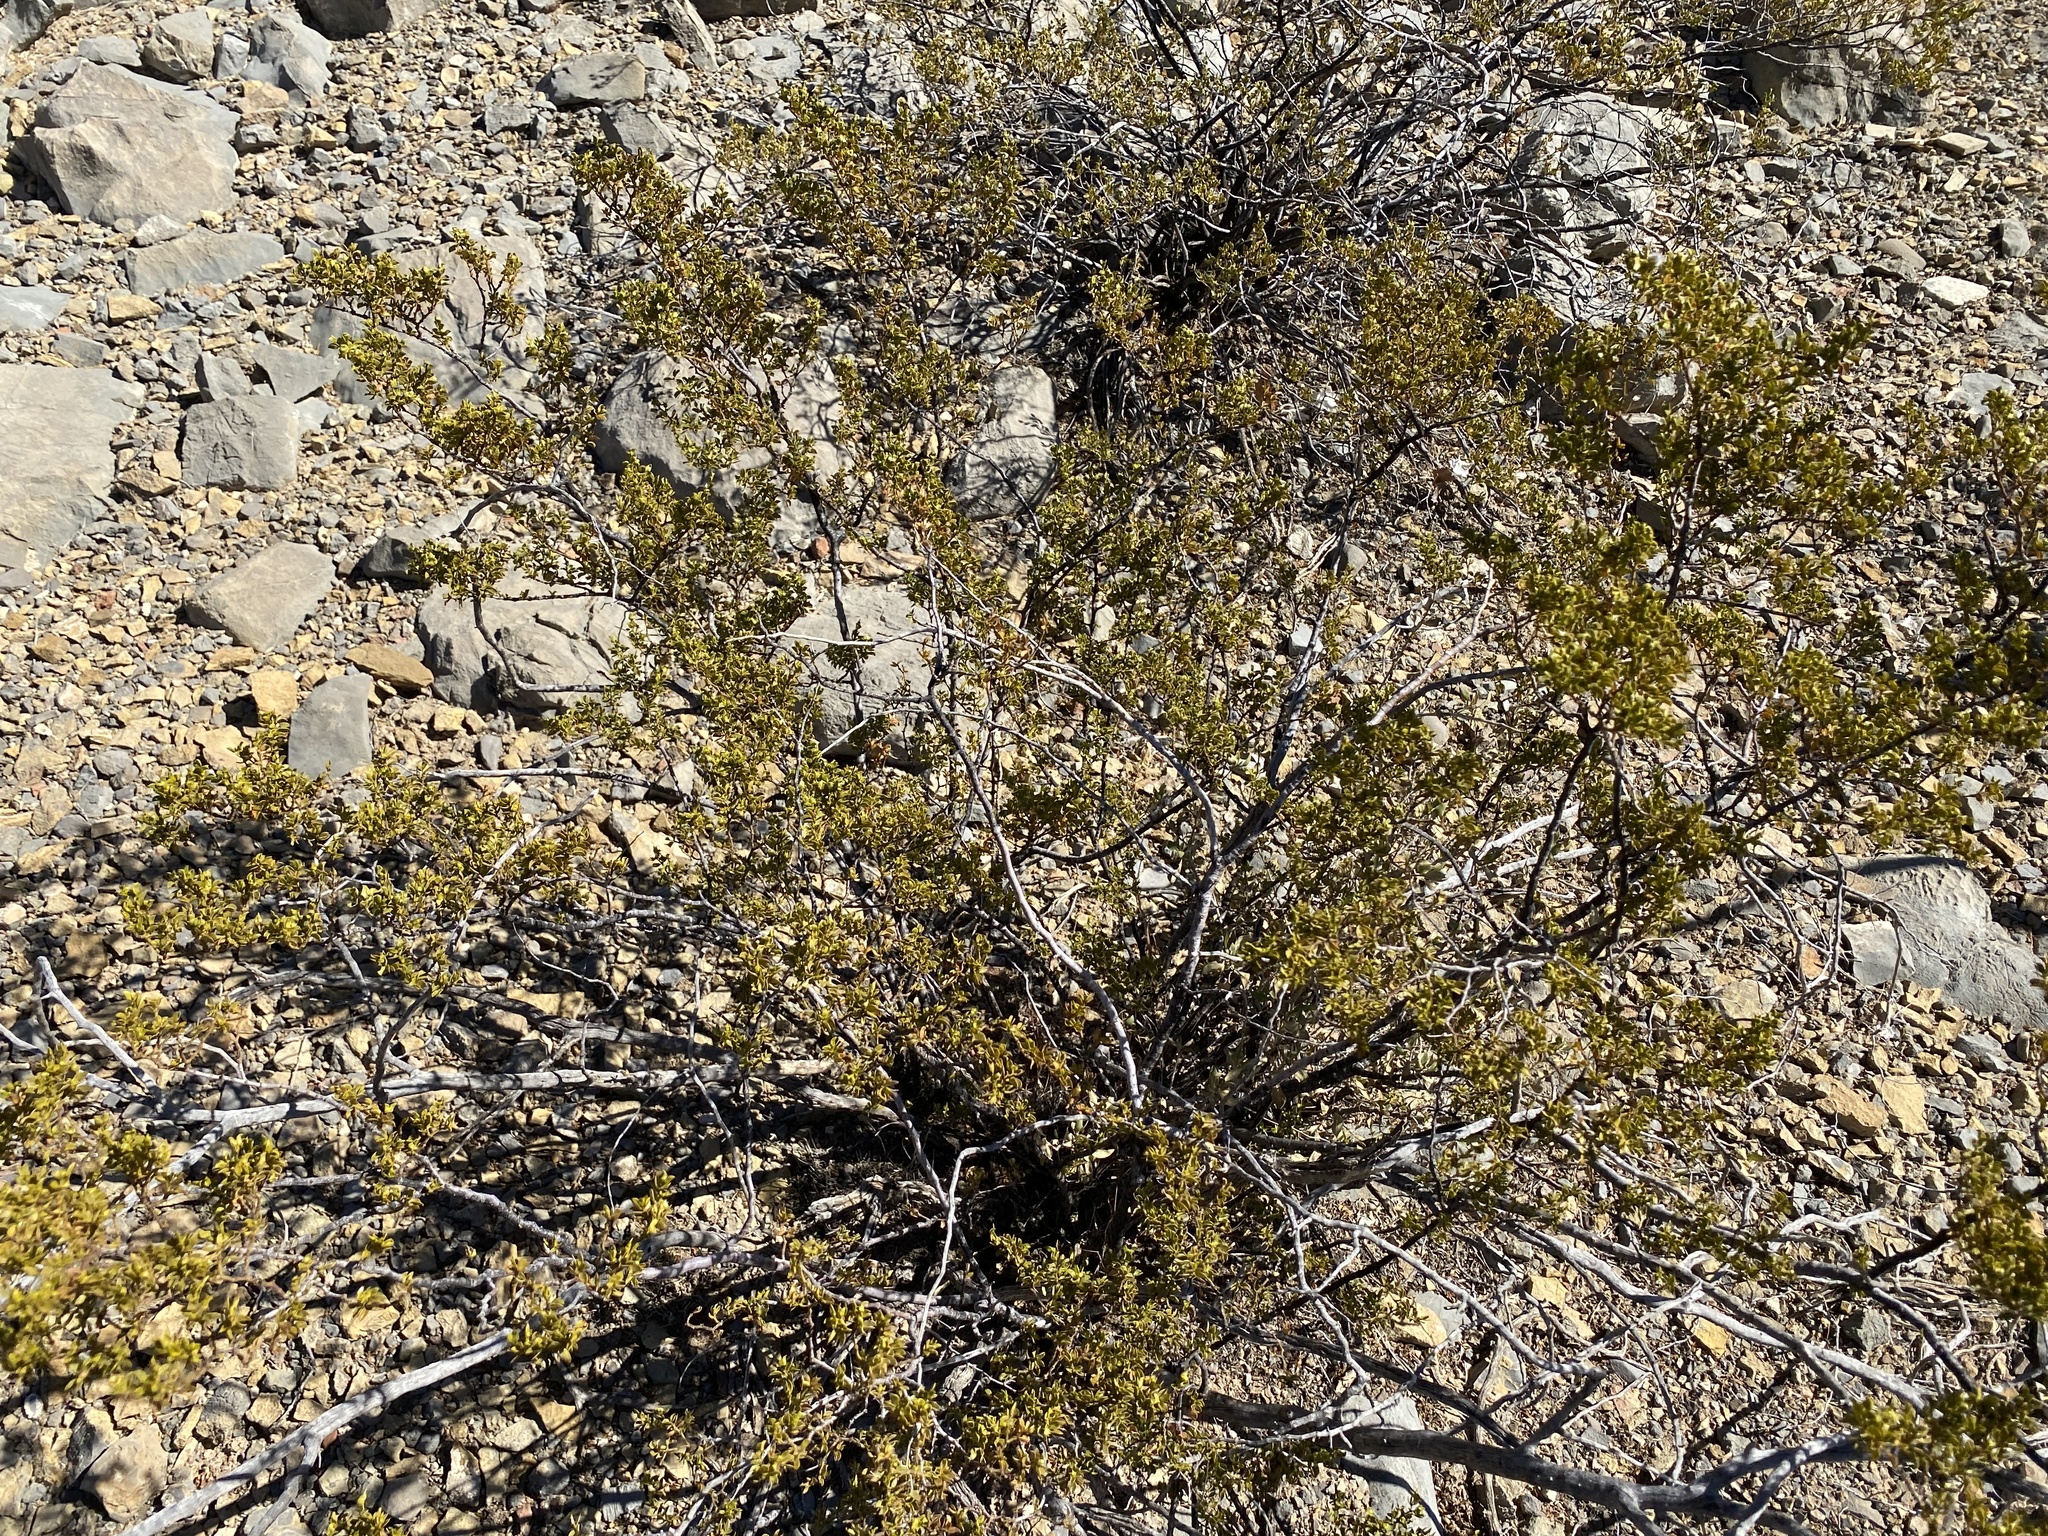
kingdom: Plantae
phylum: Tracheophyta
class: Magnoliopsida
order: Zygophyllales
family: Zygophyllaceae
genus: Larrea
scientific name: Larrea tridentata
